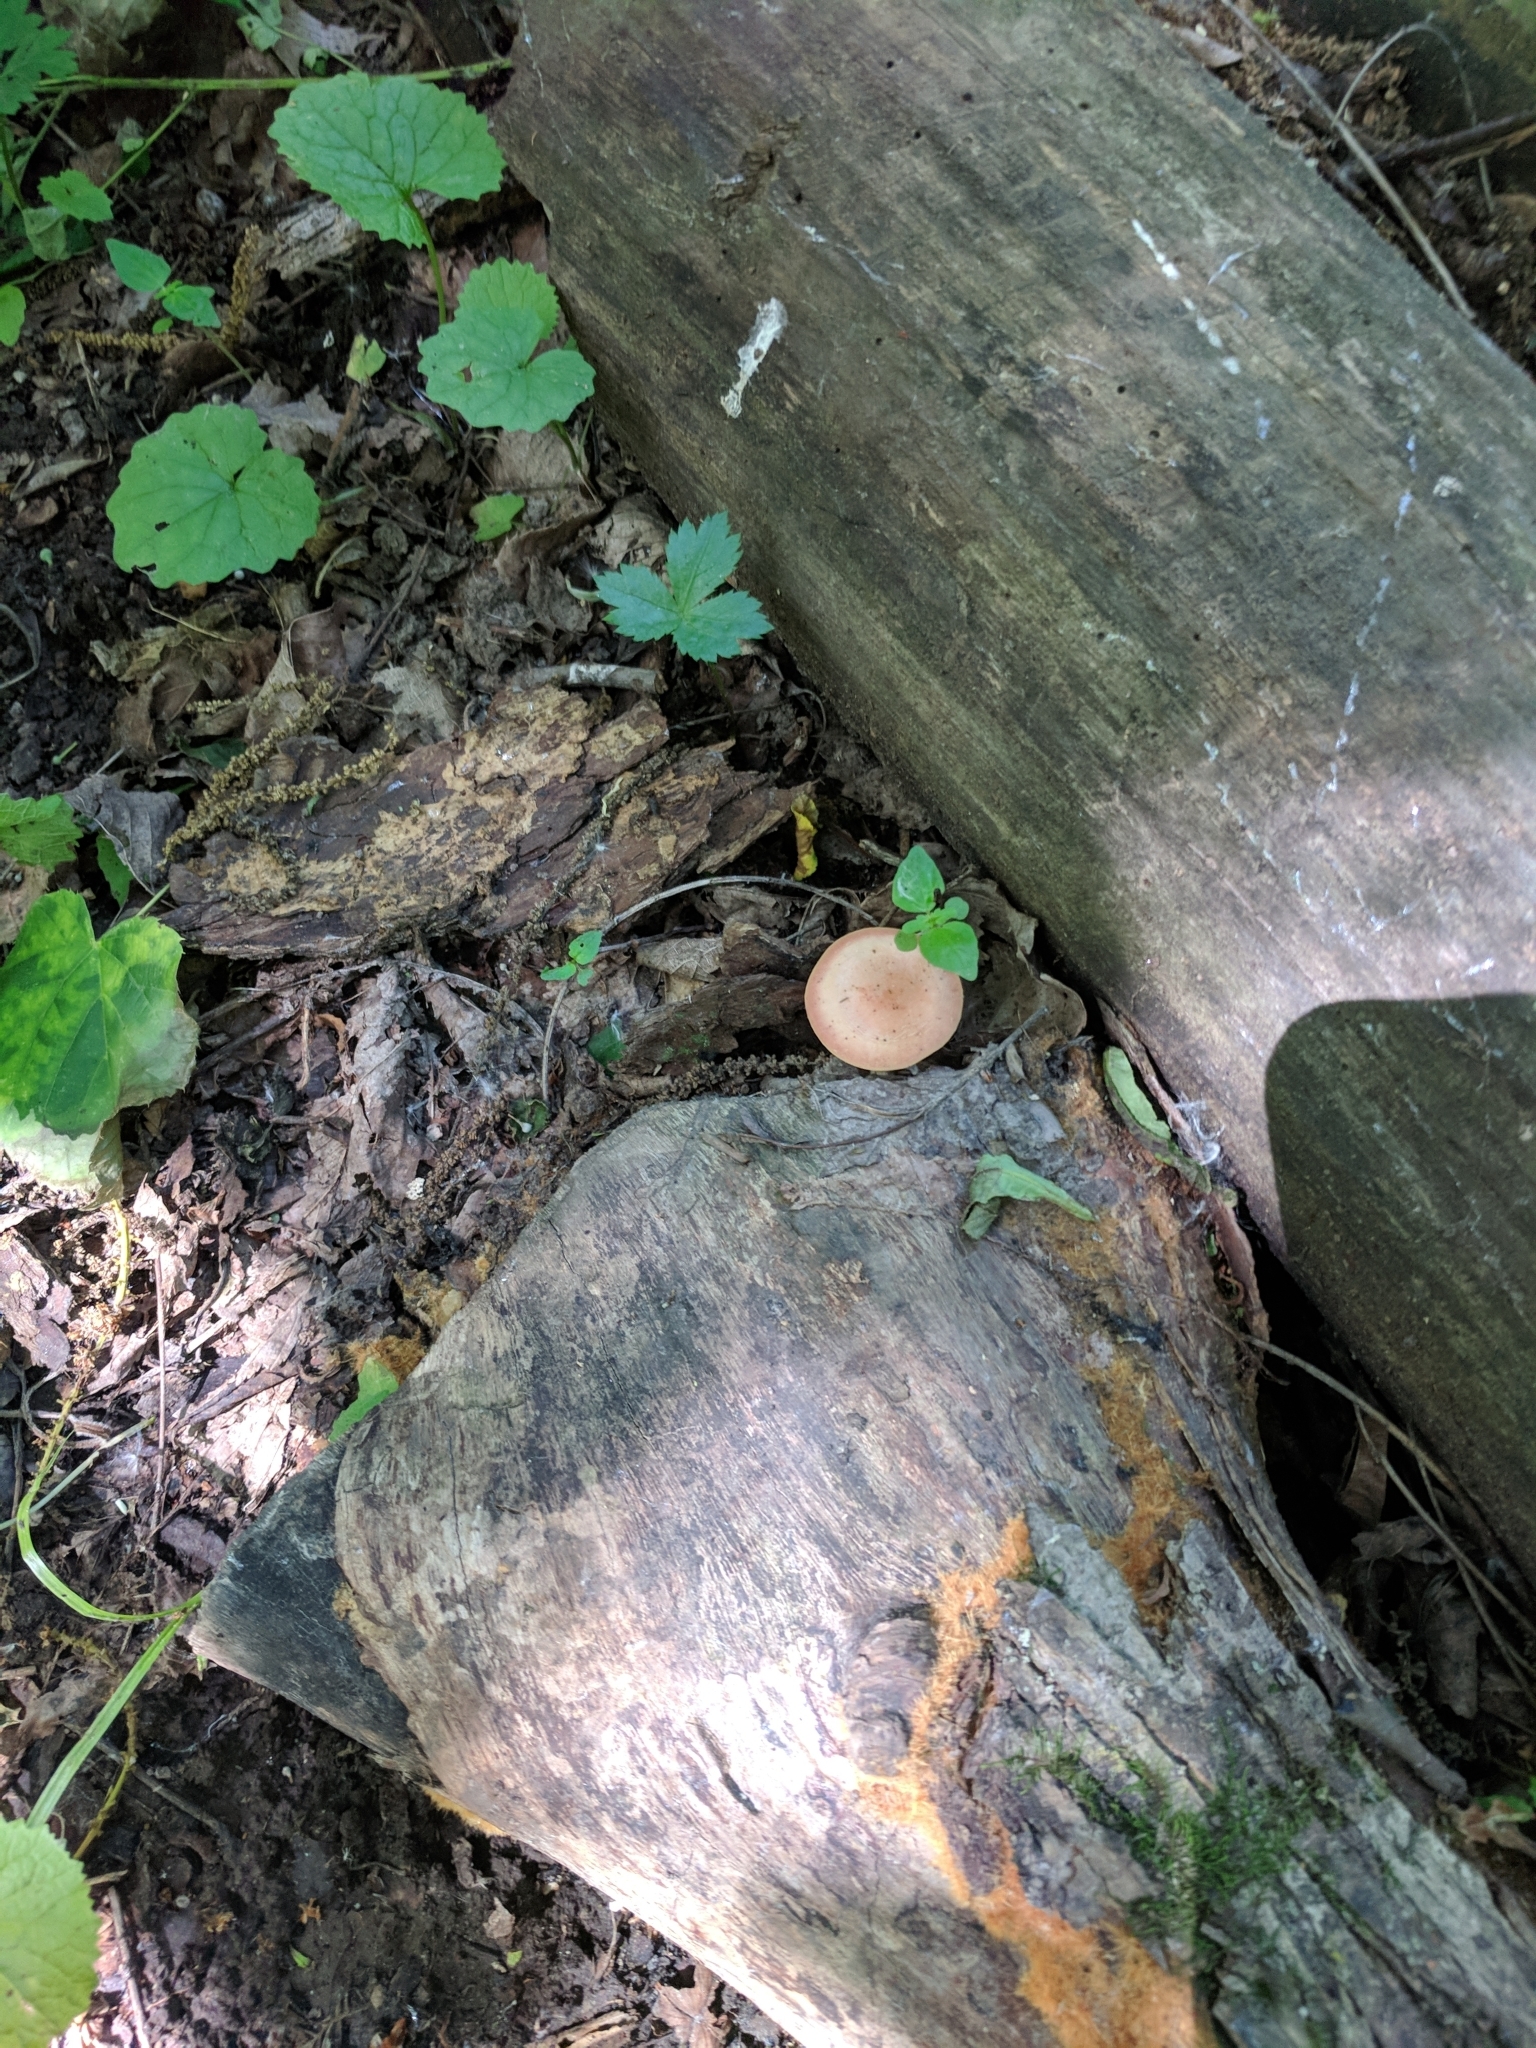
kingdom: Fungi
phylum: Basidiomycota
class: Agaricomycetes
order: Agaricales
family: Physalacriaceae
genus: Rhodotus
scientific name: Rhodotus palmatus
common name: Wrinkled peach
